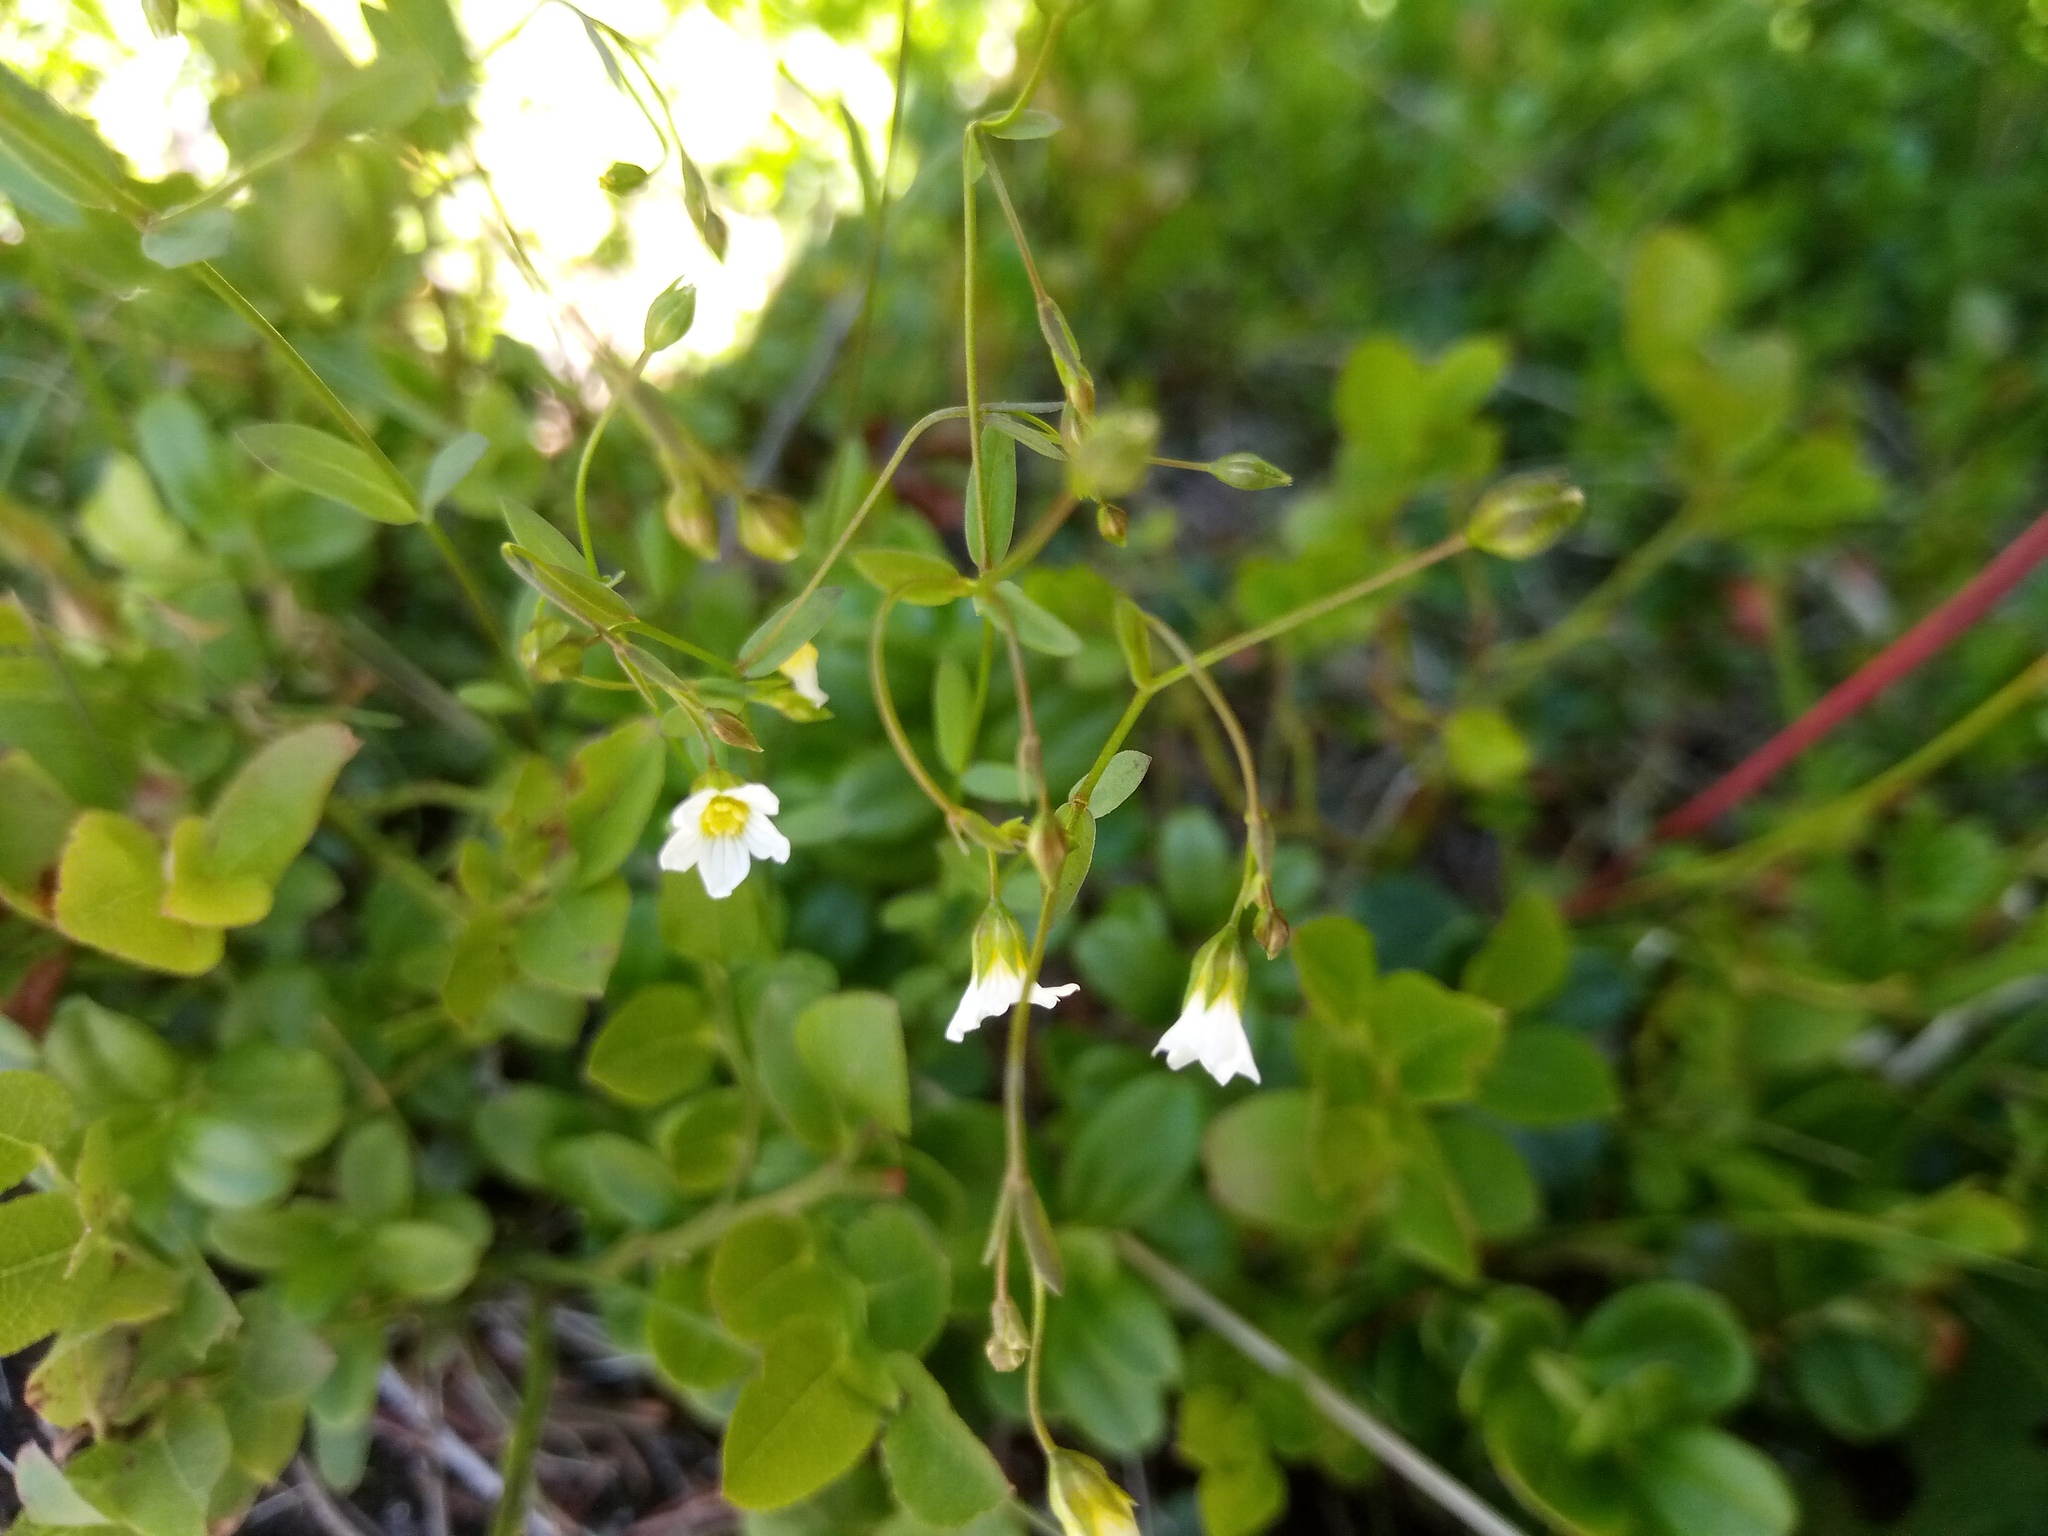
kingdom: Plantae
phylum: Tracheophyta
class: Magnoliopsida
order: Malpighiales
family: Linaceae
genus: Linum
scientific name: Linum catharticum
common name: Fairy flax
